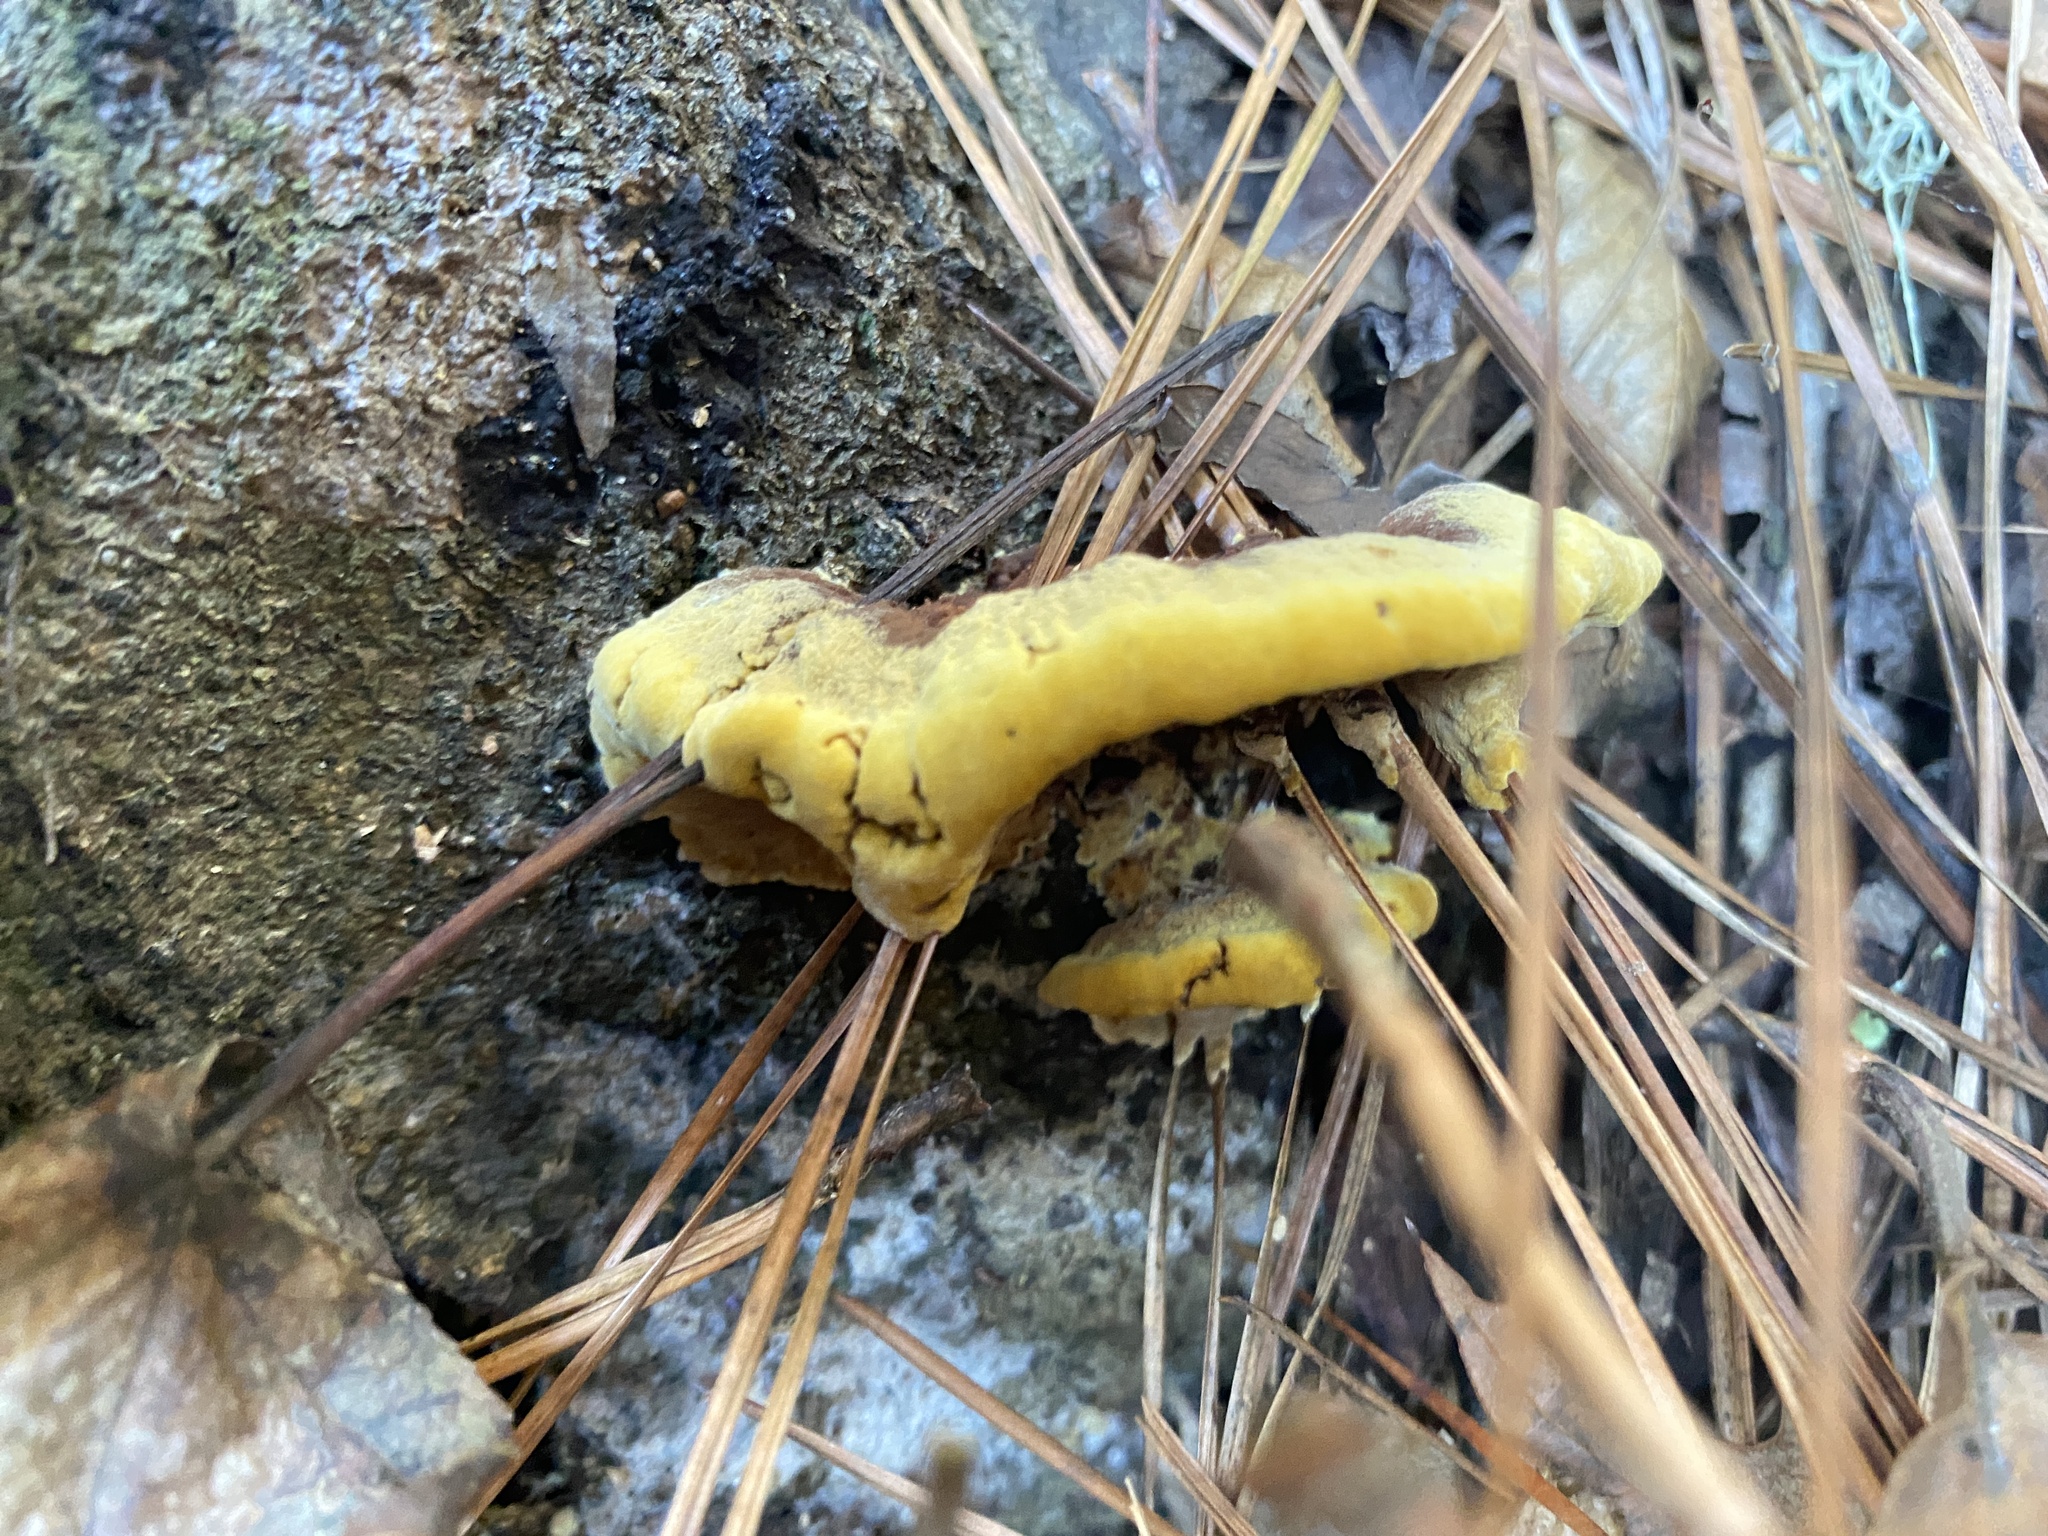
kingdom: Fungi
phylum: Basidiomycota
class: Agaricomycetes
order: Hymenochaetales
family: Hymenochaetaceae
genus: Phellinus
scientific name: Phellinus gilvus
